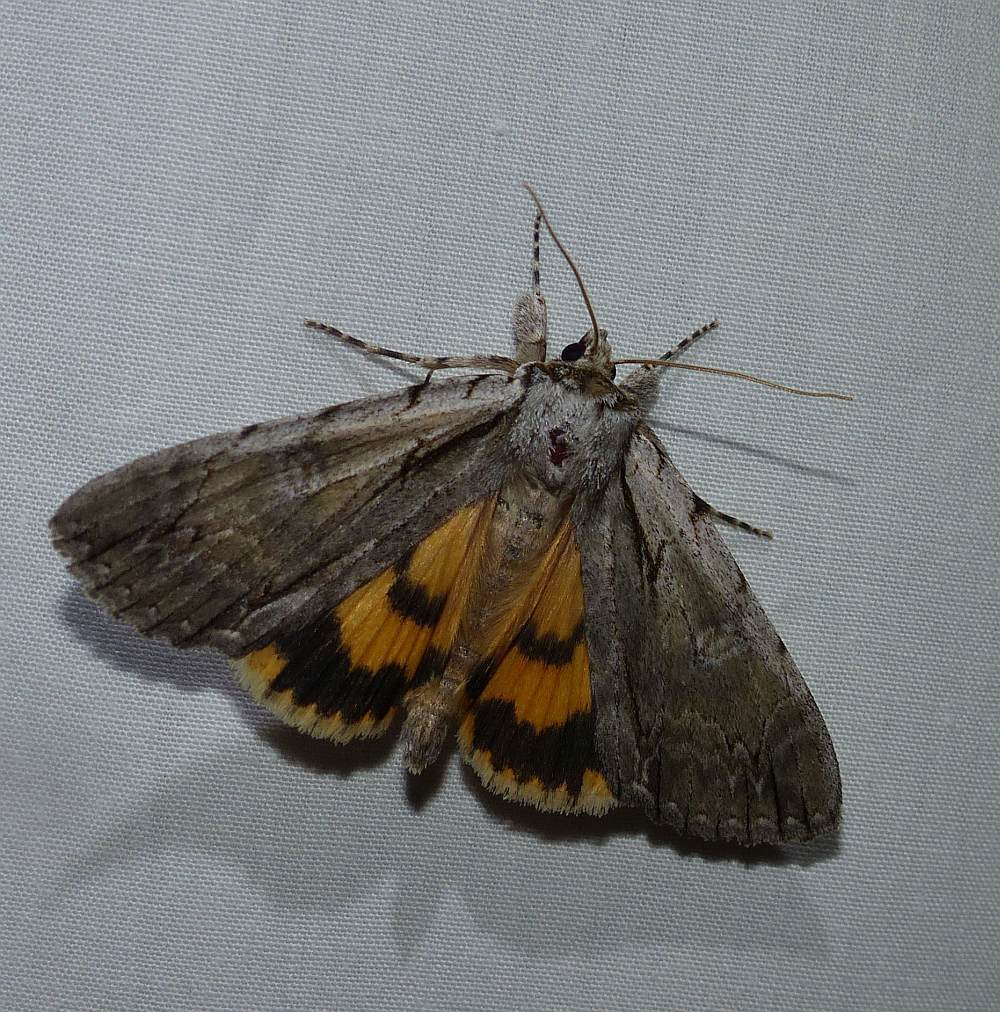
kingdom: Animalia
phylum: Arthropoda
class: Insecta
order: Lepidoptera
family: Erebidae
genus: Catocala
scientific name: Catocala clintonii
